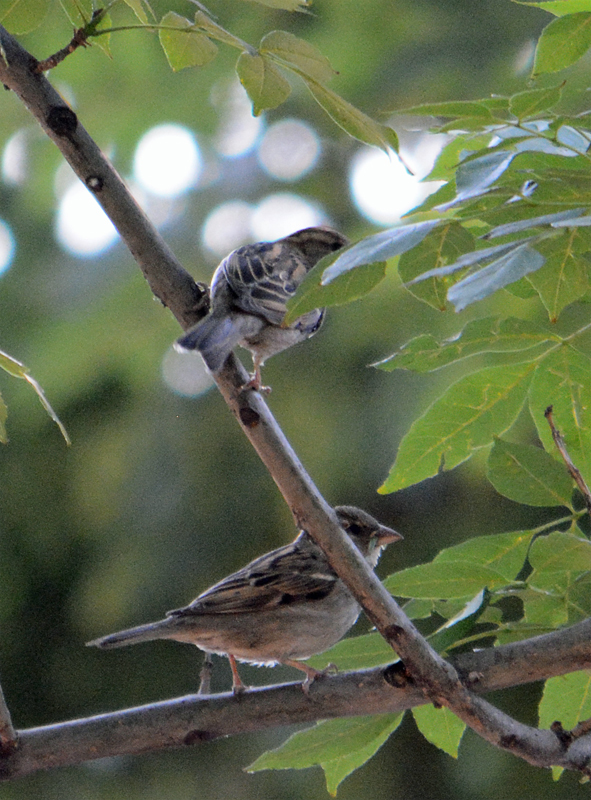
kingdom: Animalia
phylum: Chordata
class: Aves
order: Passeriformes
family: Passeridae
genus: Passer
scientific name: Passer domesticus
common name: House sparrow
